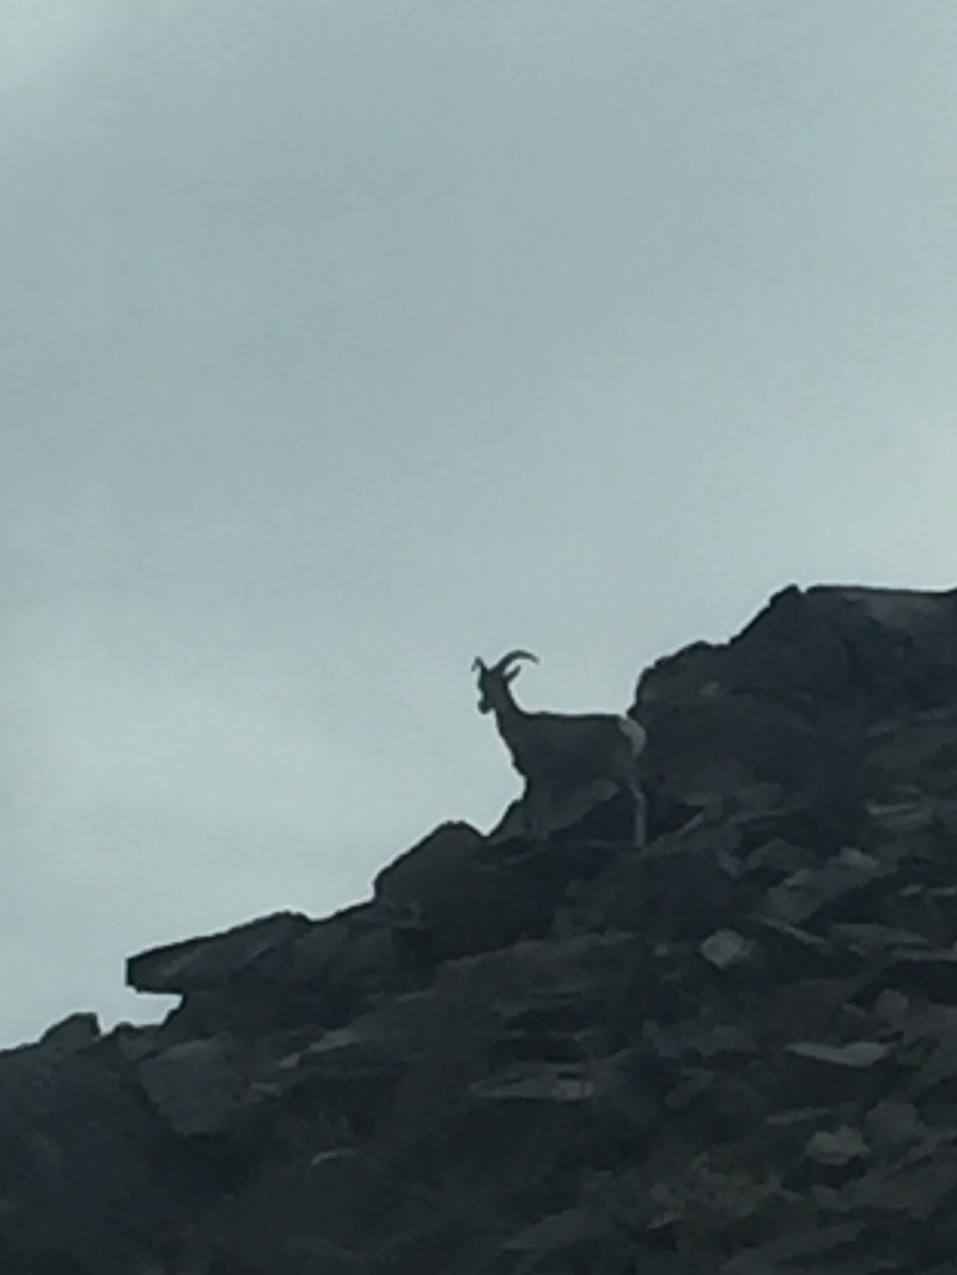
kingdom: Animalia
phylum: Chordata
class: Mammalia
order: Artiodactyla
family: Bovidae
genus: Ovis
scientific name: Ovis canadensis
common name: Bighorn sheep
